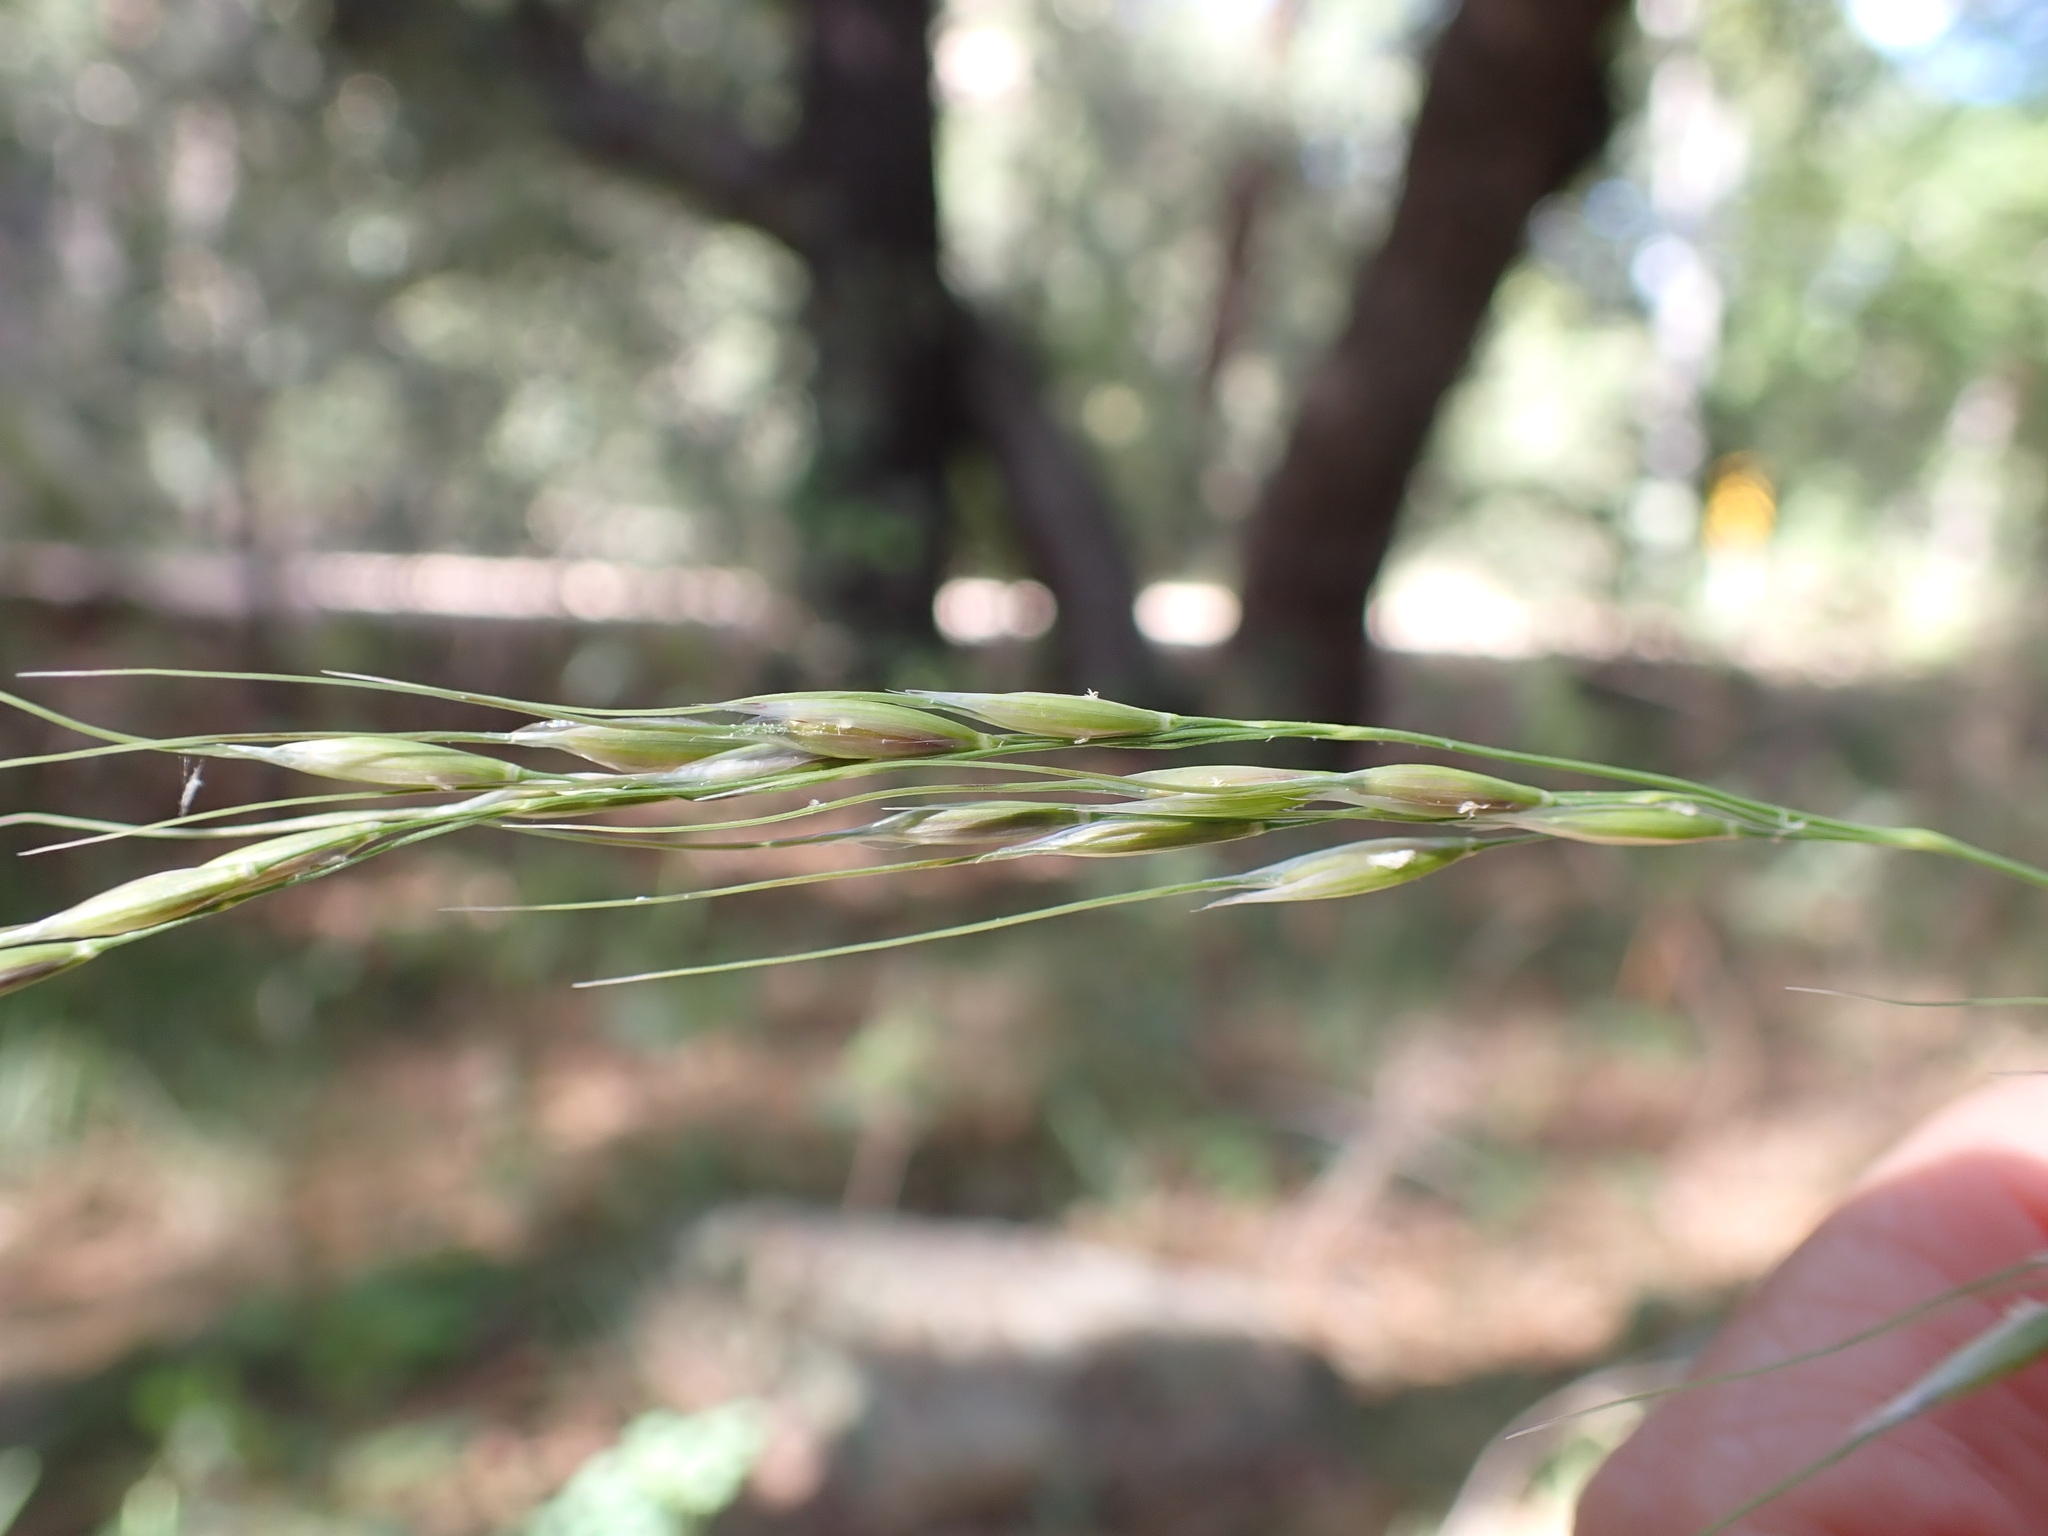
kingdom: Plantae
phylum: Tracheophyta
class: Liliopsida
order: Poales
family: Poaceae
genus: Piptochaetium
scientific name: Piptochaetium pringlei
